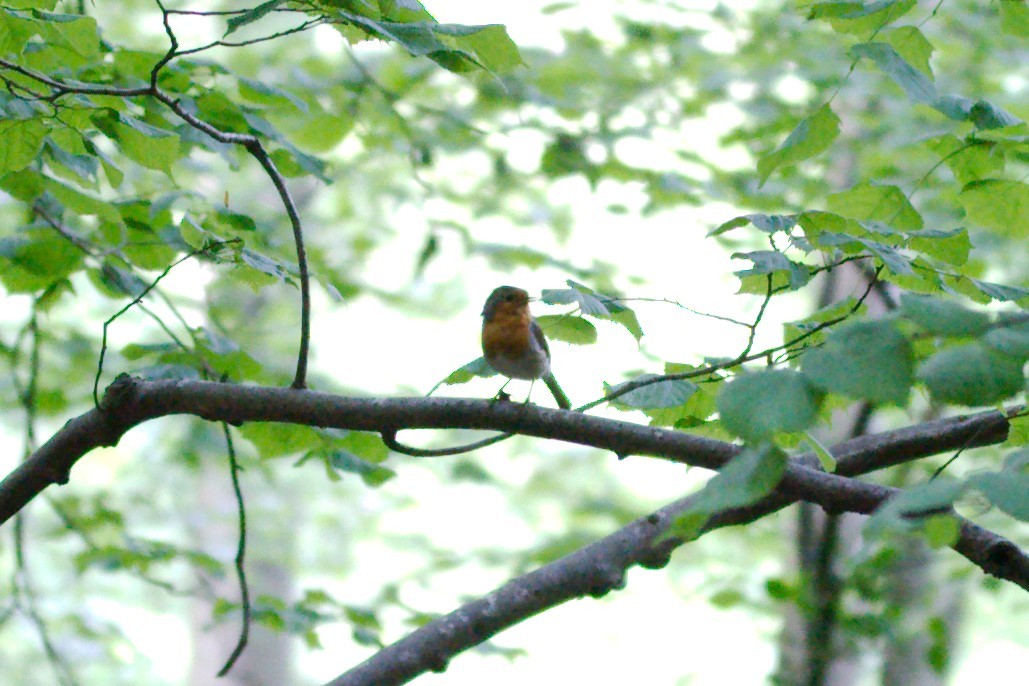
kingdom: Animalia
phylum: Chordata
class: Aves
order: Passeriformes
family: Muscicapidae
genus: Erithacus
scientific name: Erithacus rubecula
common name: European robin
